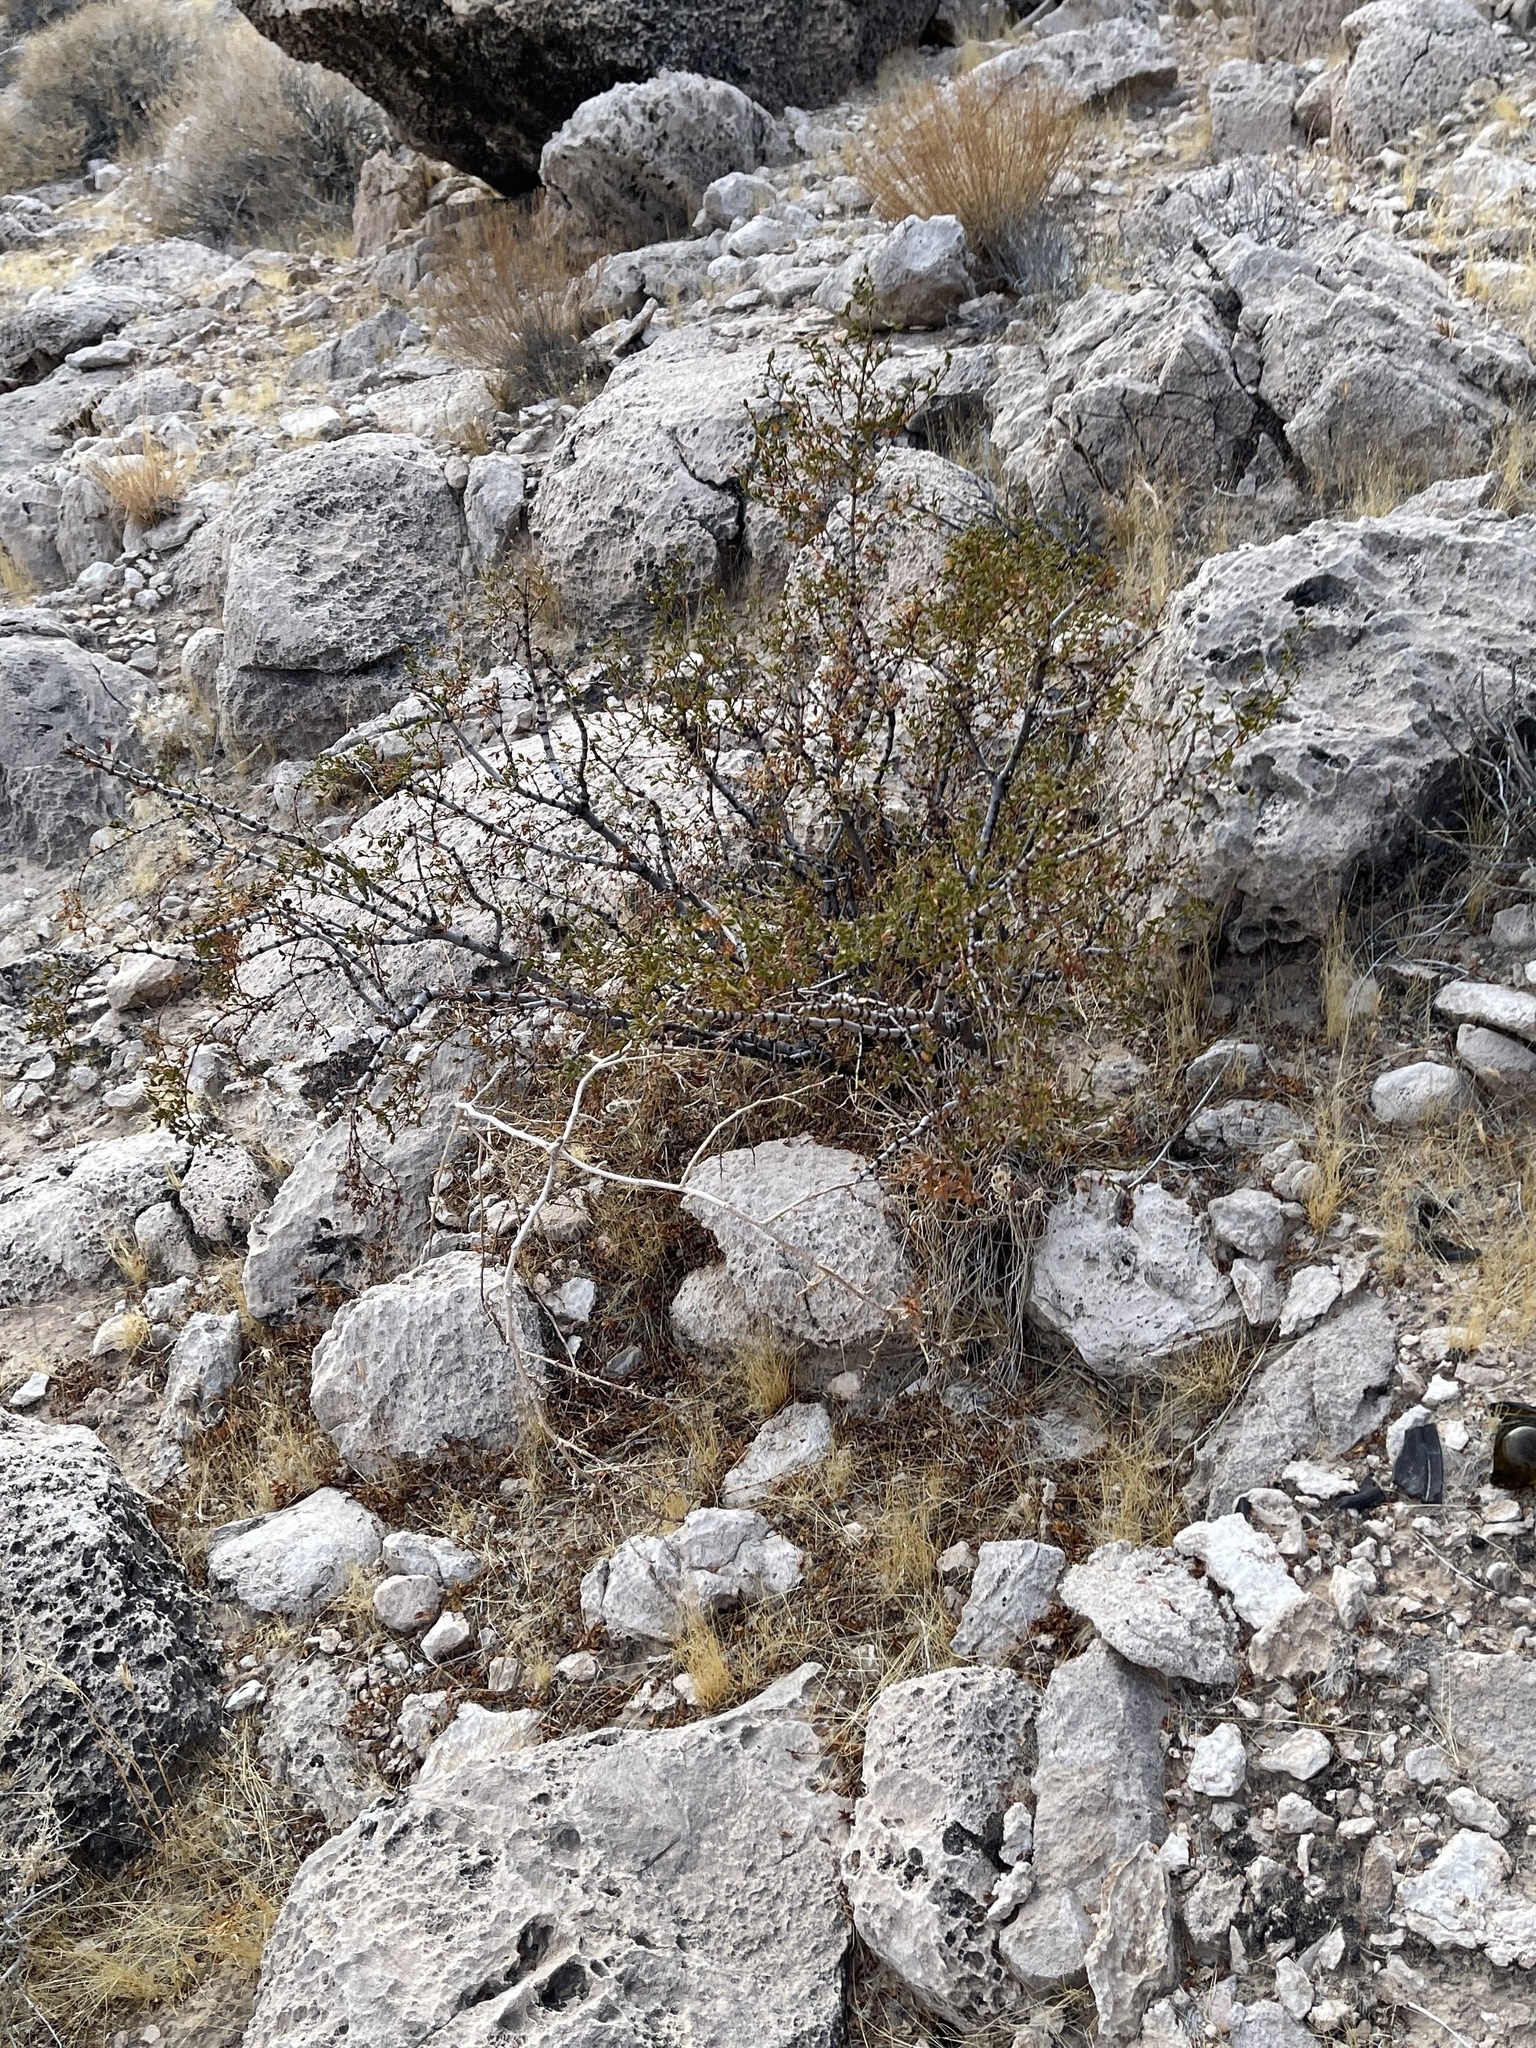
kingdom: Plantae
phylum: Tracheophyta
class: Magnoliopsida
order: Zygophyllales
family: Zygophyllaceae
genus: Larrea
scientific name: Larrea tridentata
